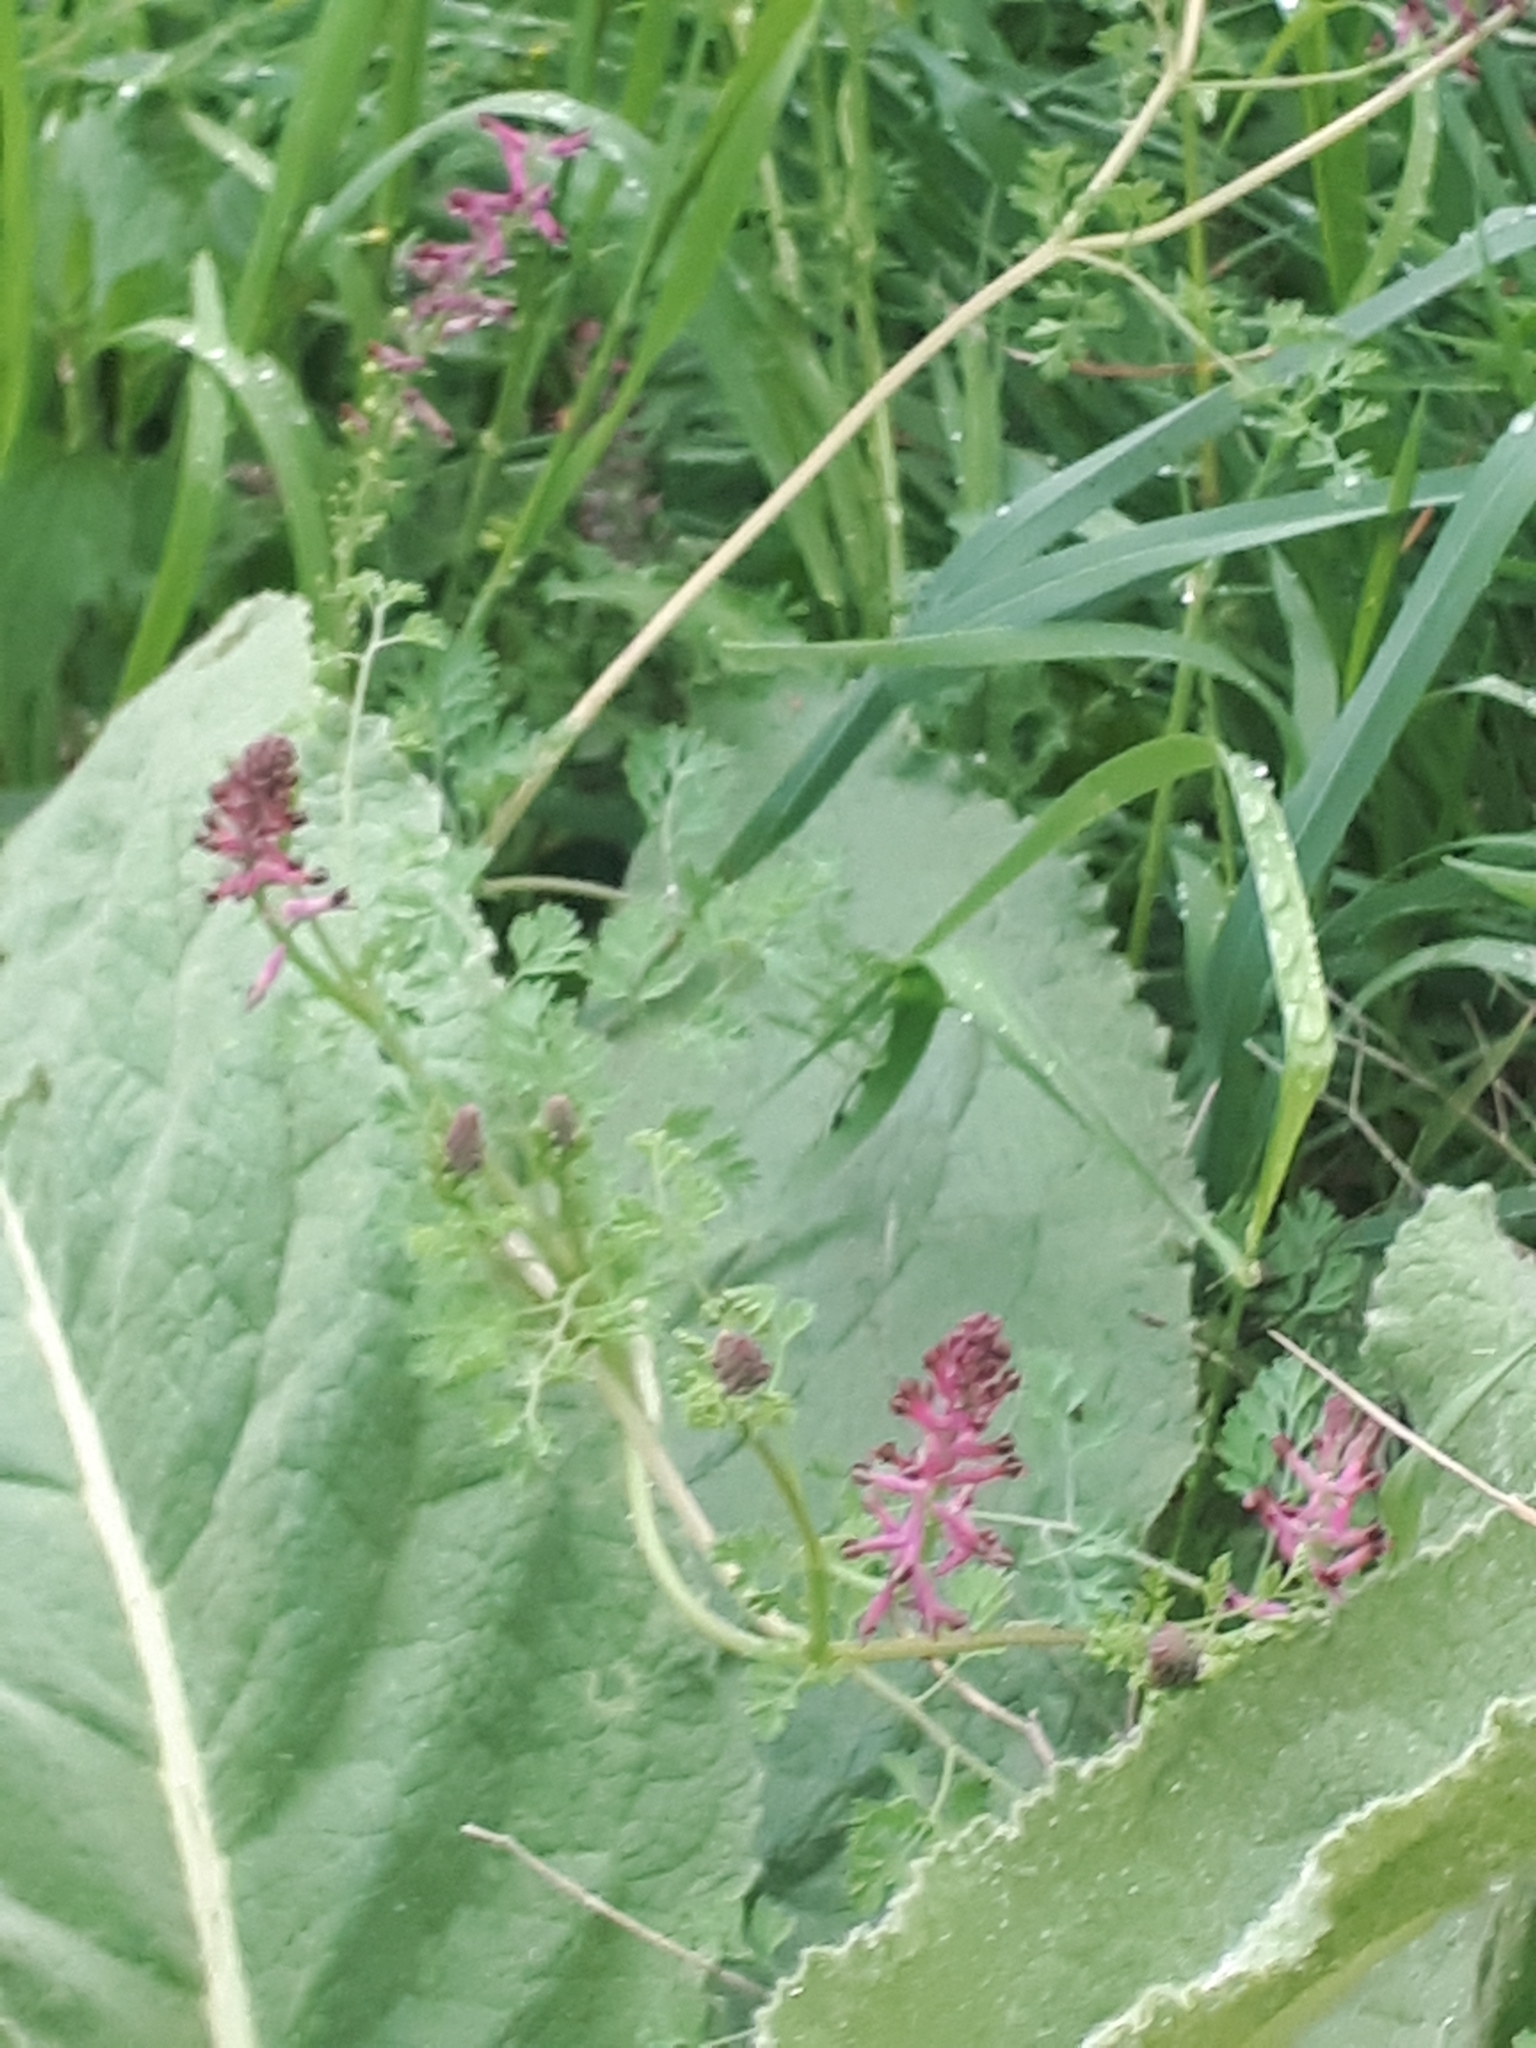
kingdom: Plantae
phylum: Tracheophyta
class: Magnoliopsida
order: Ranunculales
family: Papaveraceae
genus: Fumaria
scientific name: Fumaria officinalis
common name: Common fumitory
